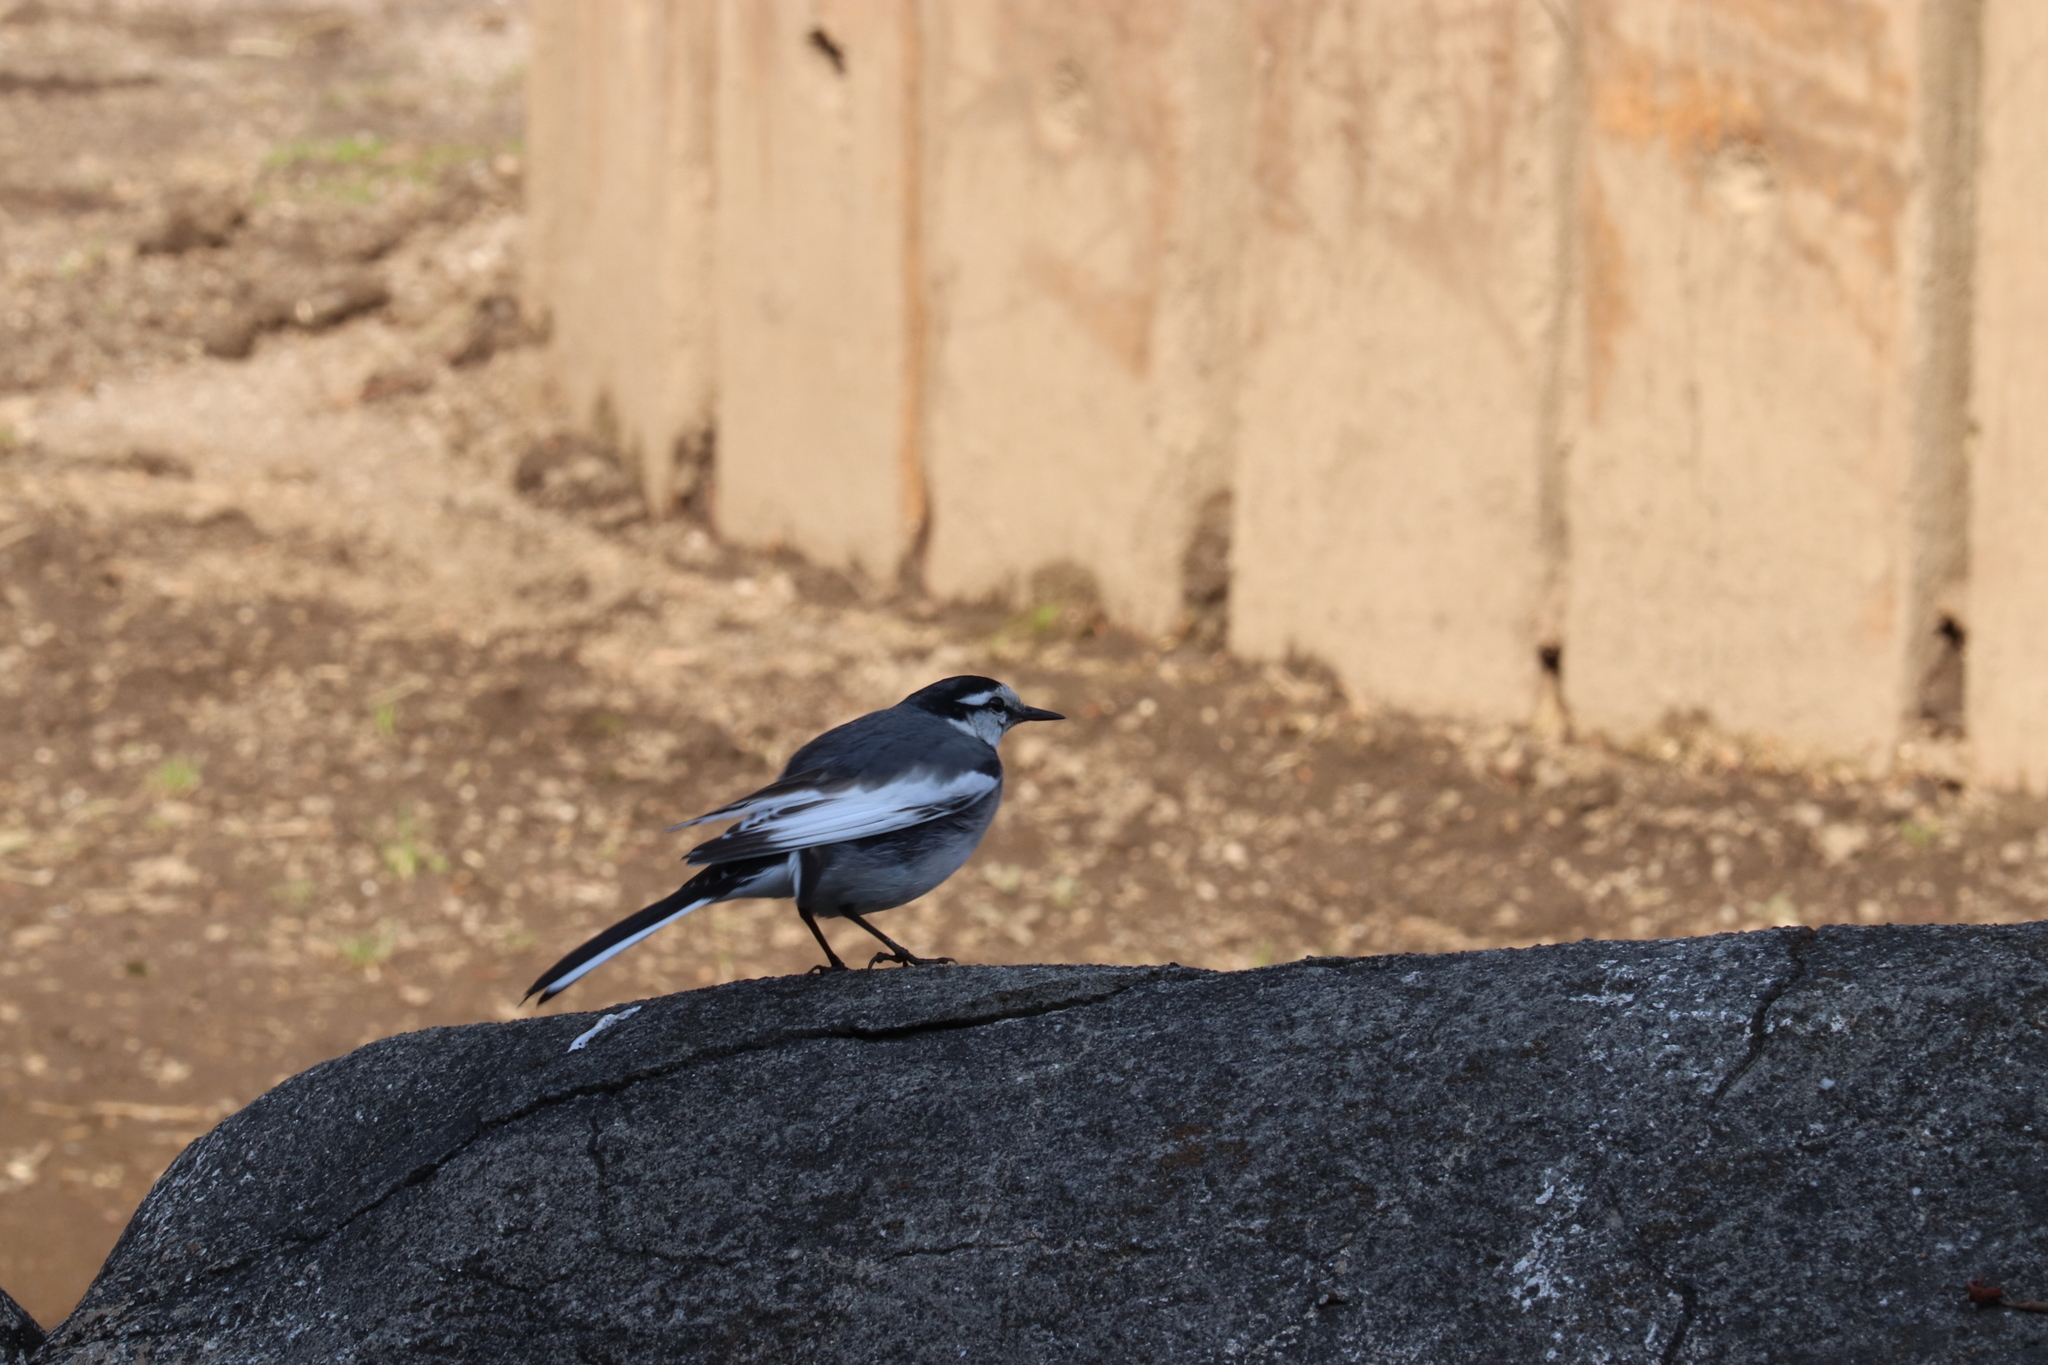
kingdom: Animalia
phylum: Chordata
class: Aves
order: Passeriformes
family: Motacillidae
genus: Motacilla
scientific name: Motacilla alba
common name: White wagtail
